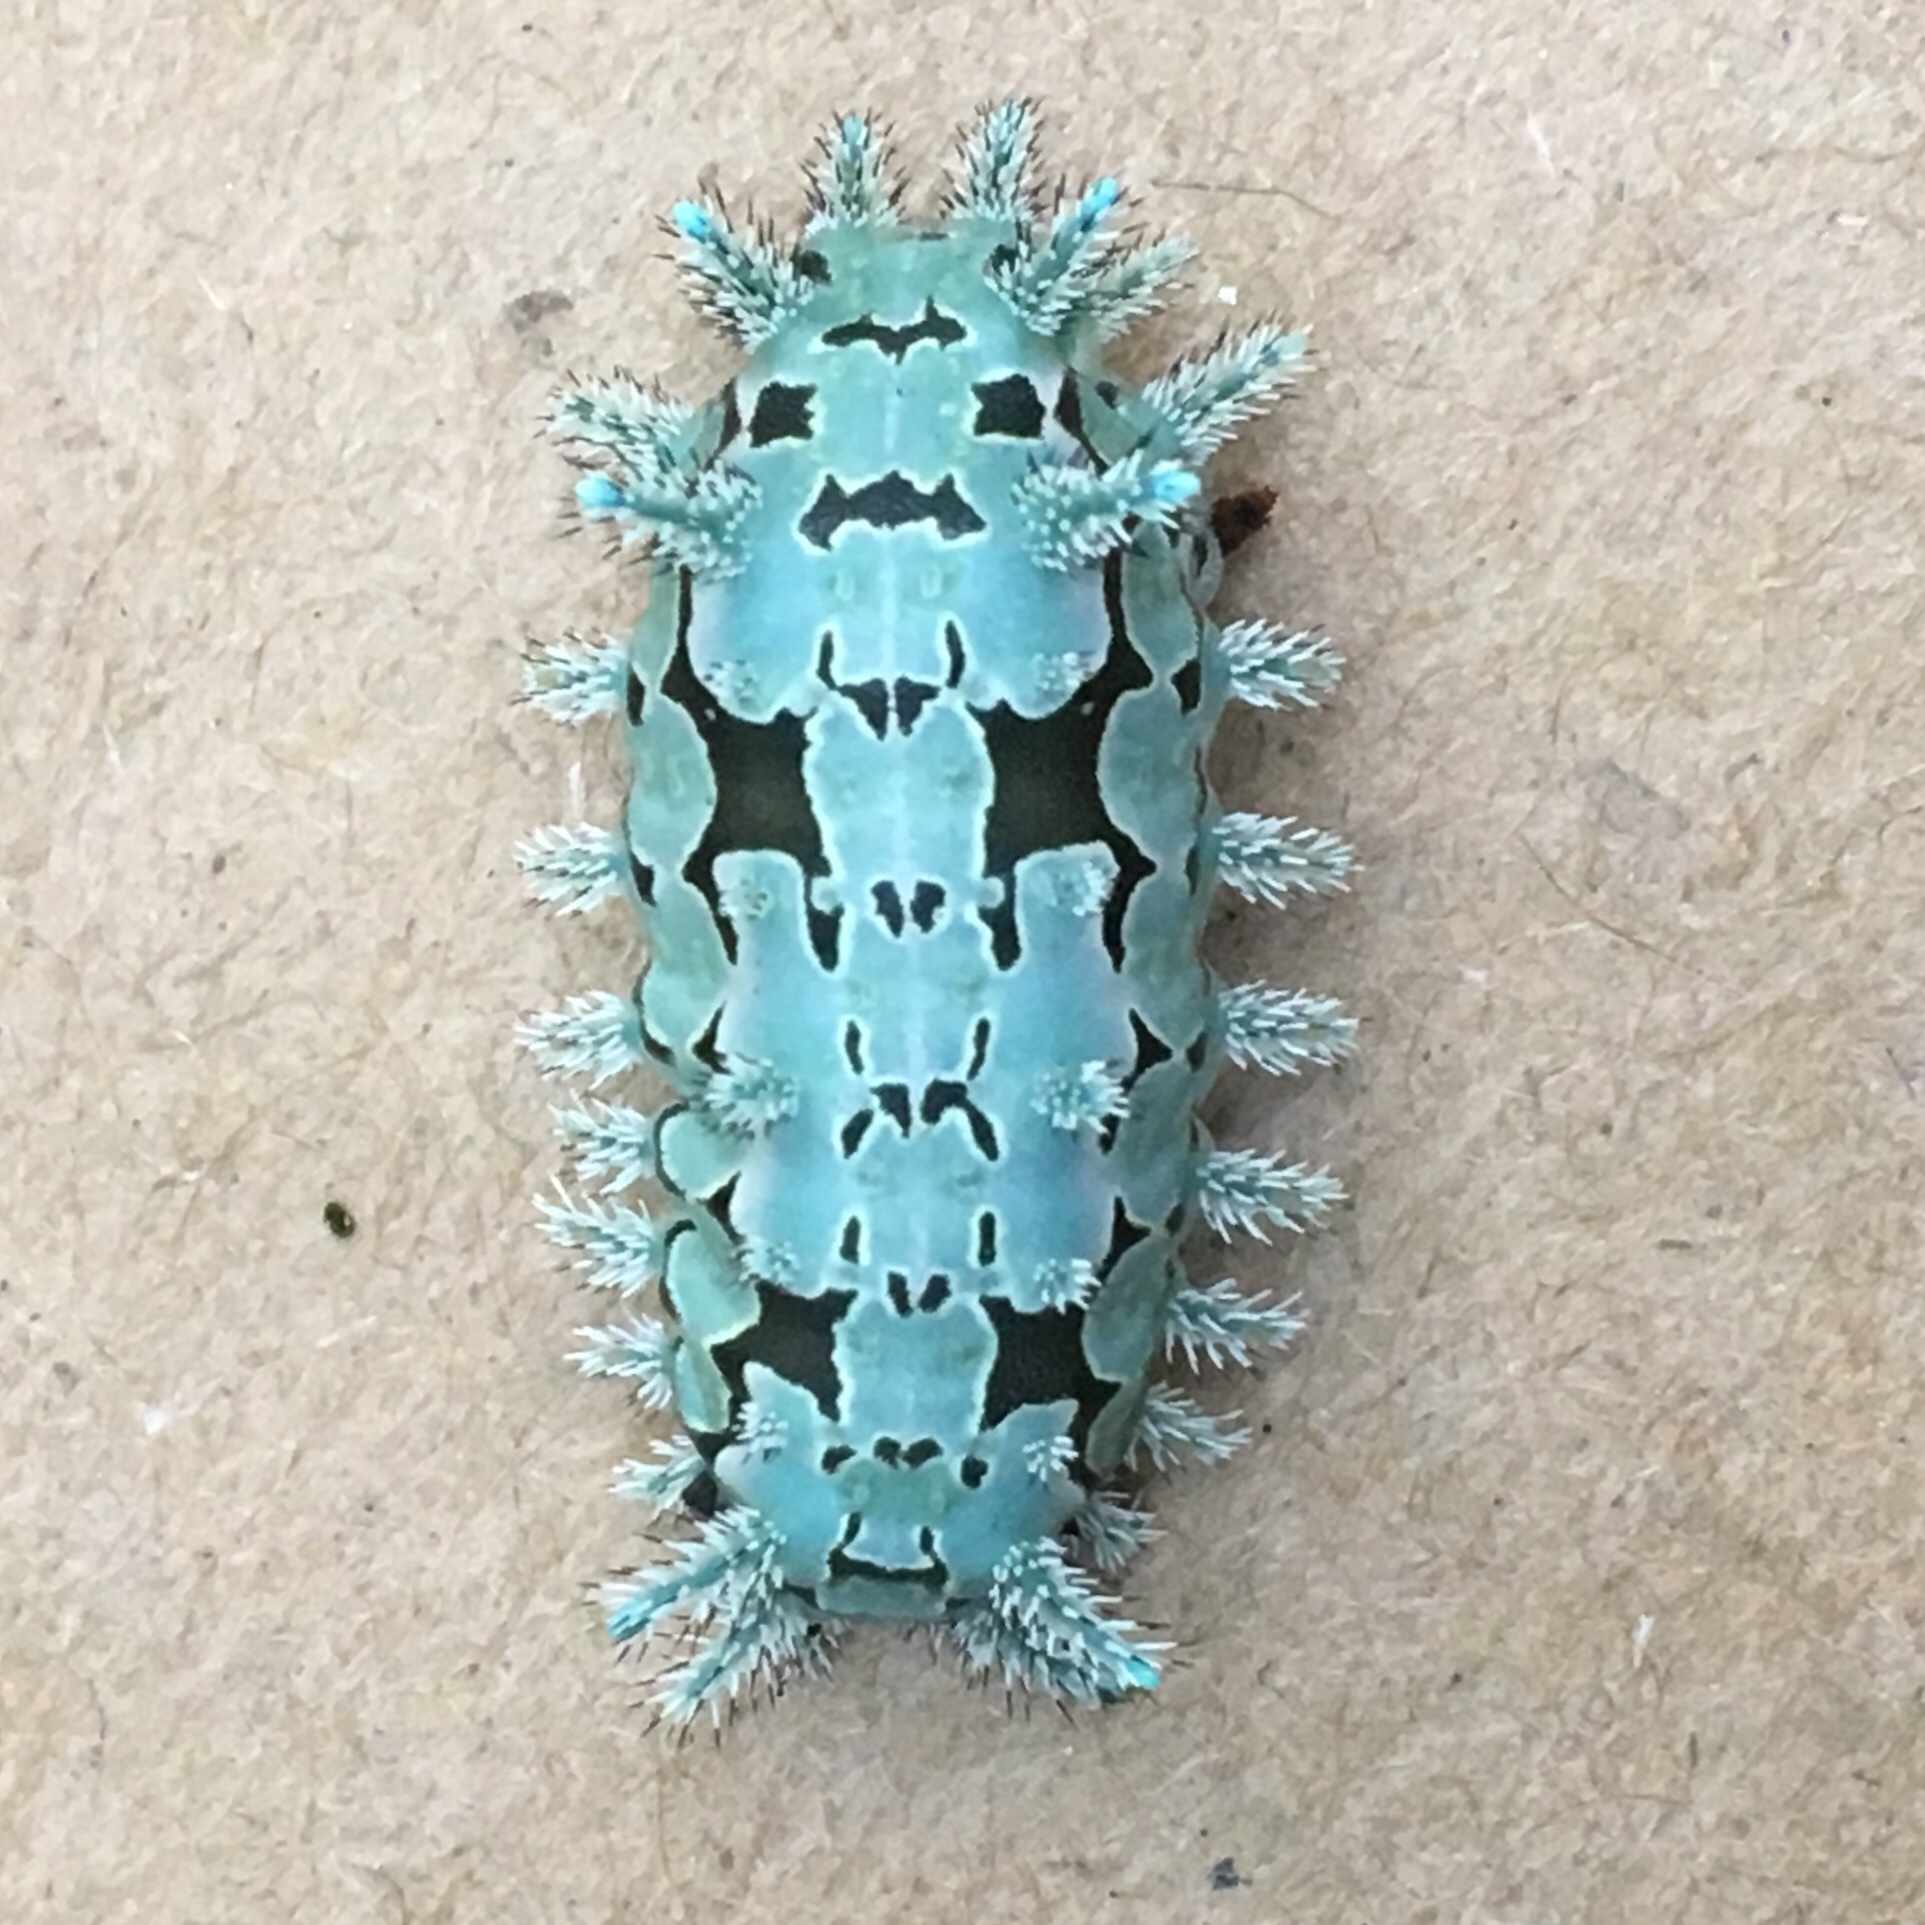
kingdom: Animalia
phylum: Arthropoda
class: Insecta
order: Lepidoptera
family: Limacodidae
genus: Euclea
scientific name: Euclea delphinii
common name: Spiny oak-slug moth
